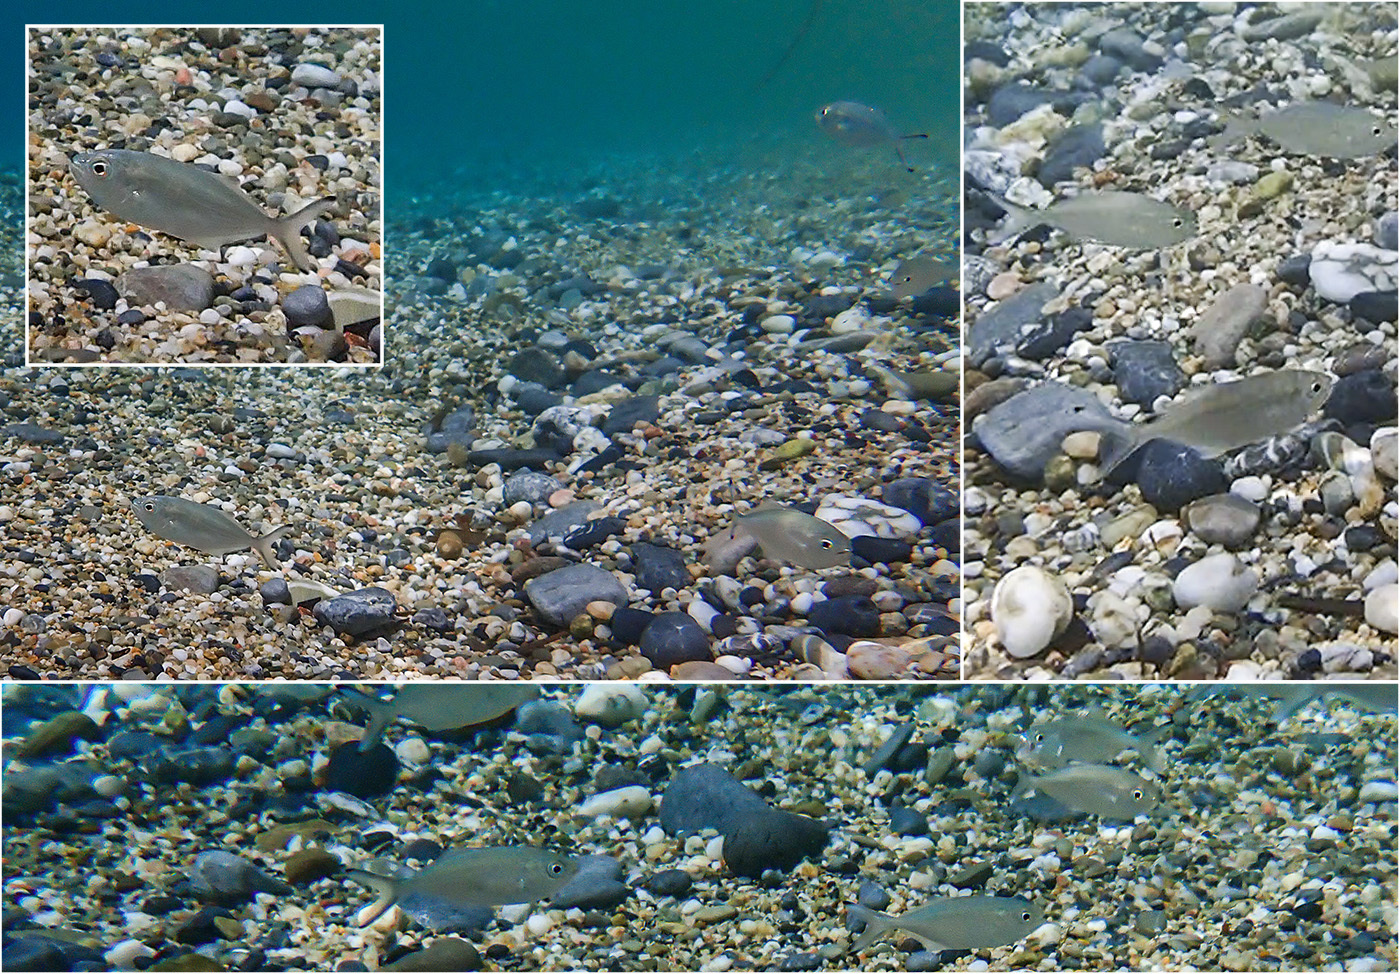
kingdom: Animalia
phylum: Chordata
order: Perciformes
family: Carangidae
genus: Trachinotus
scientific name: Trachinotus ovatus
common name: Pompano
